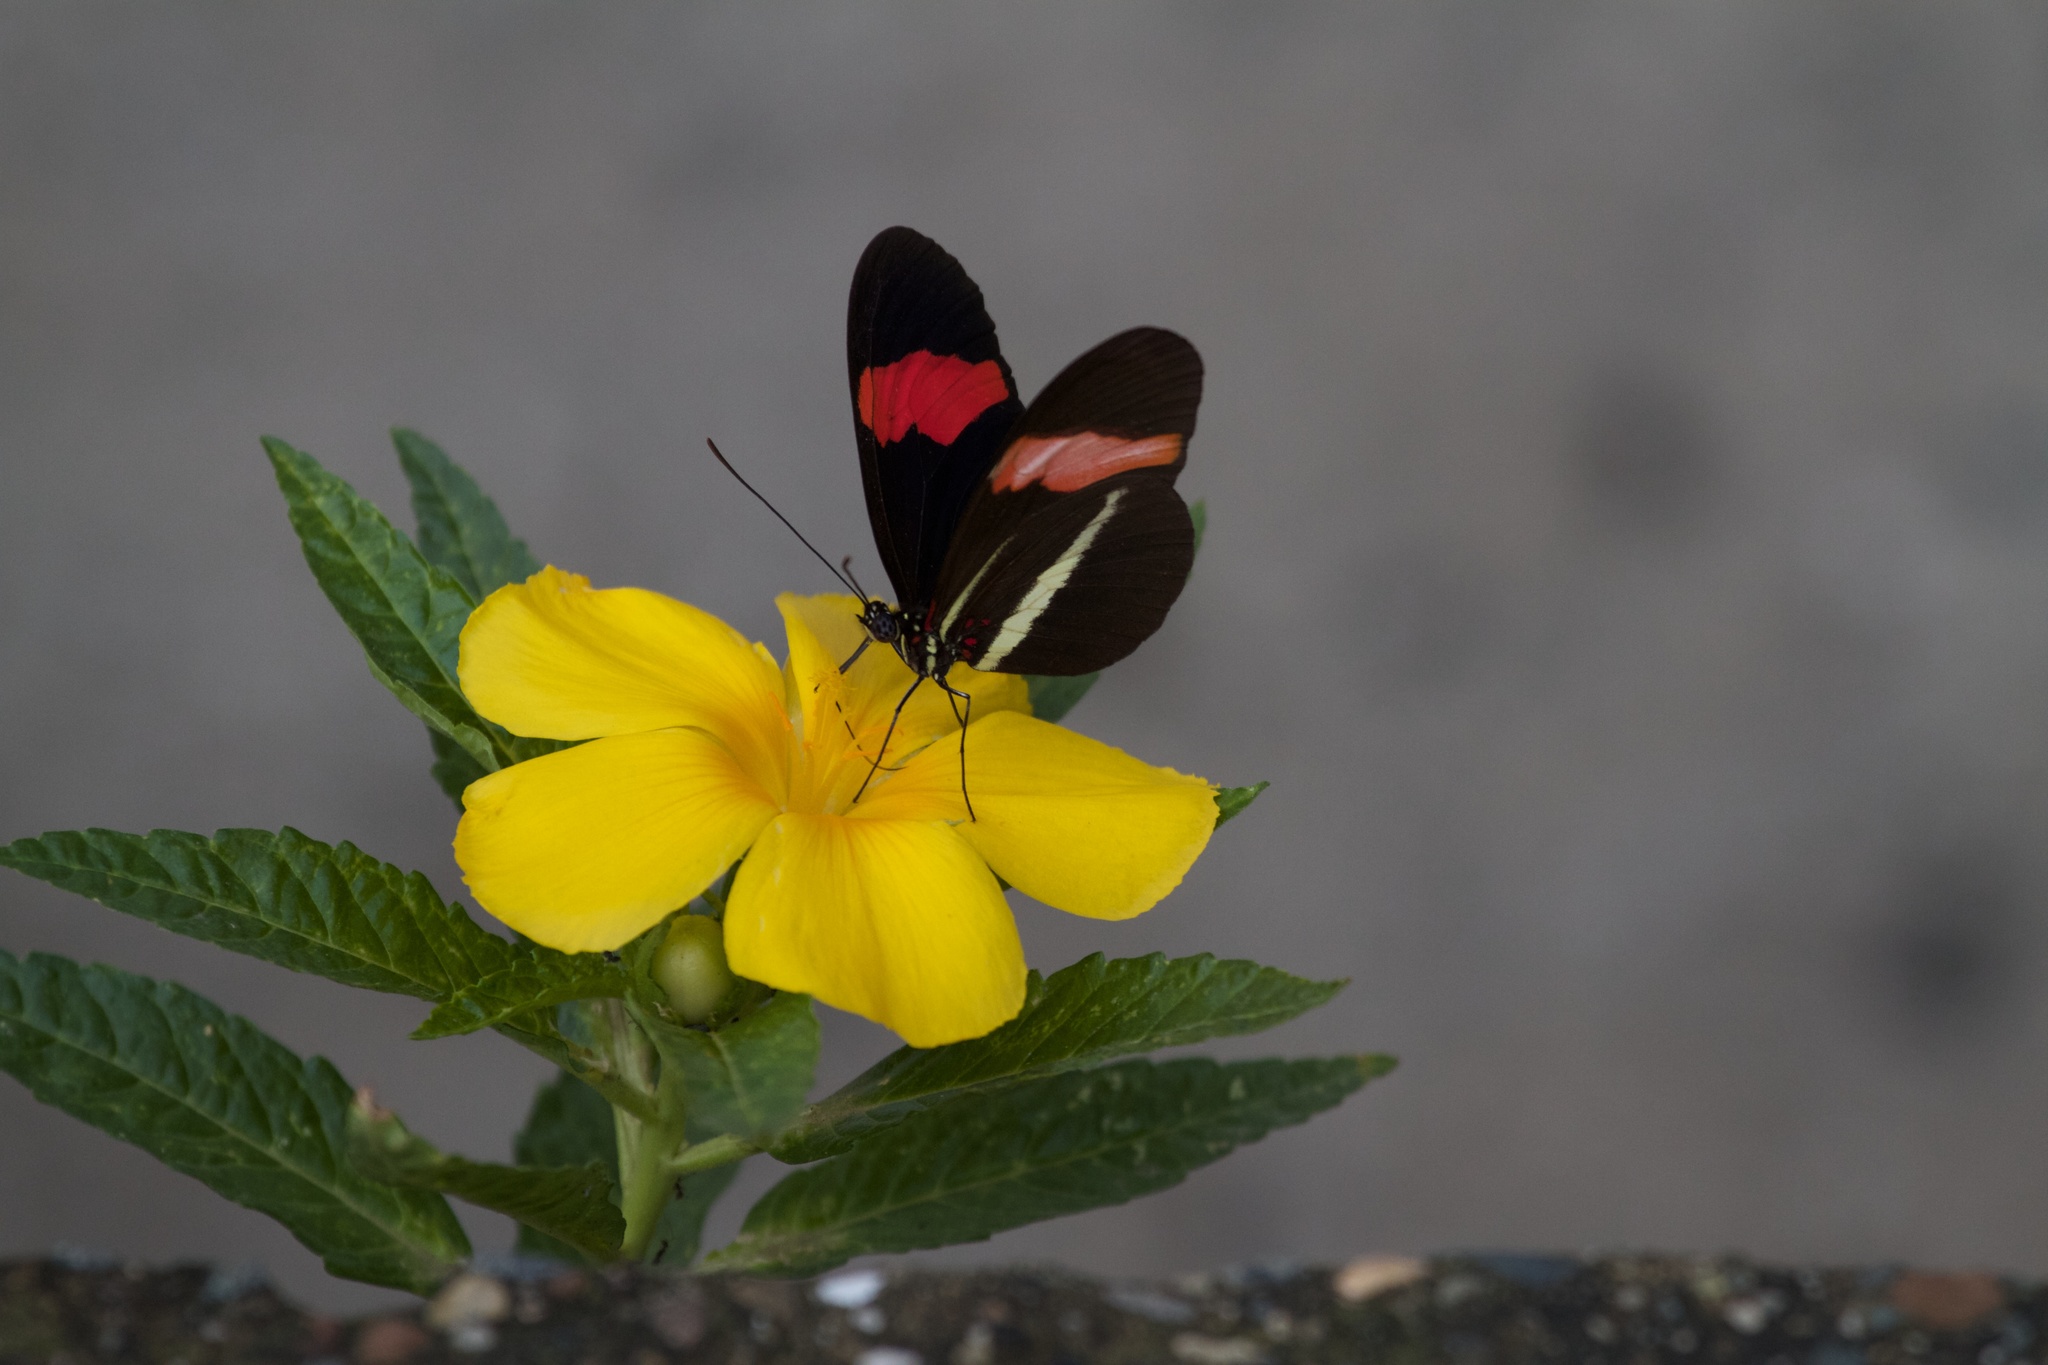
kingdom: Animalia
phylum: Arthropoda
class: Insecta
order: Lepidoptera
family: Nymphalidae
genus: Tirumala
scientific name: Tirumala petiverana
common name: Blue monarch
